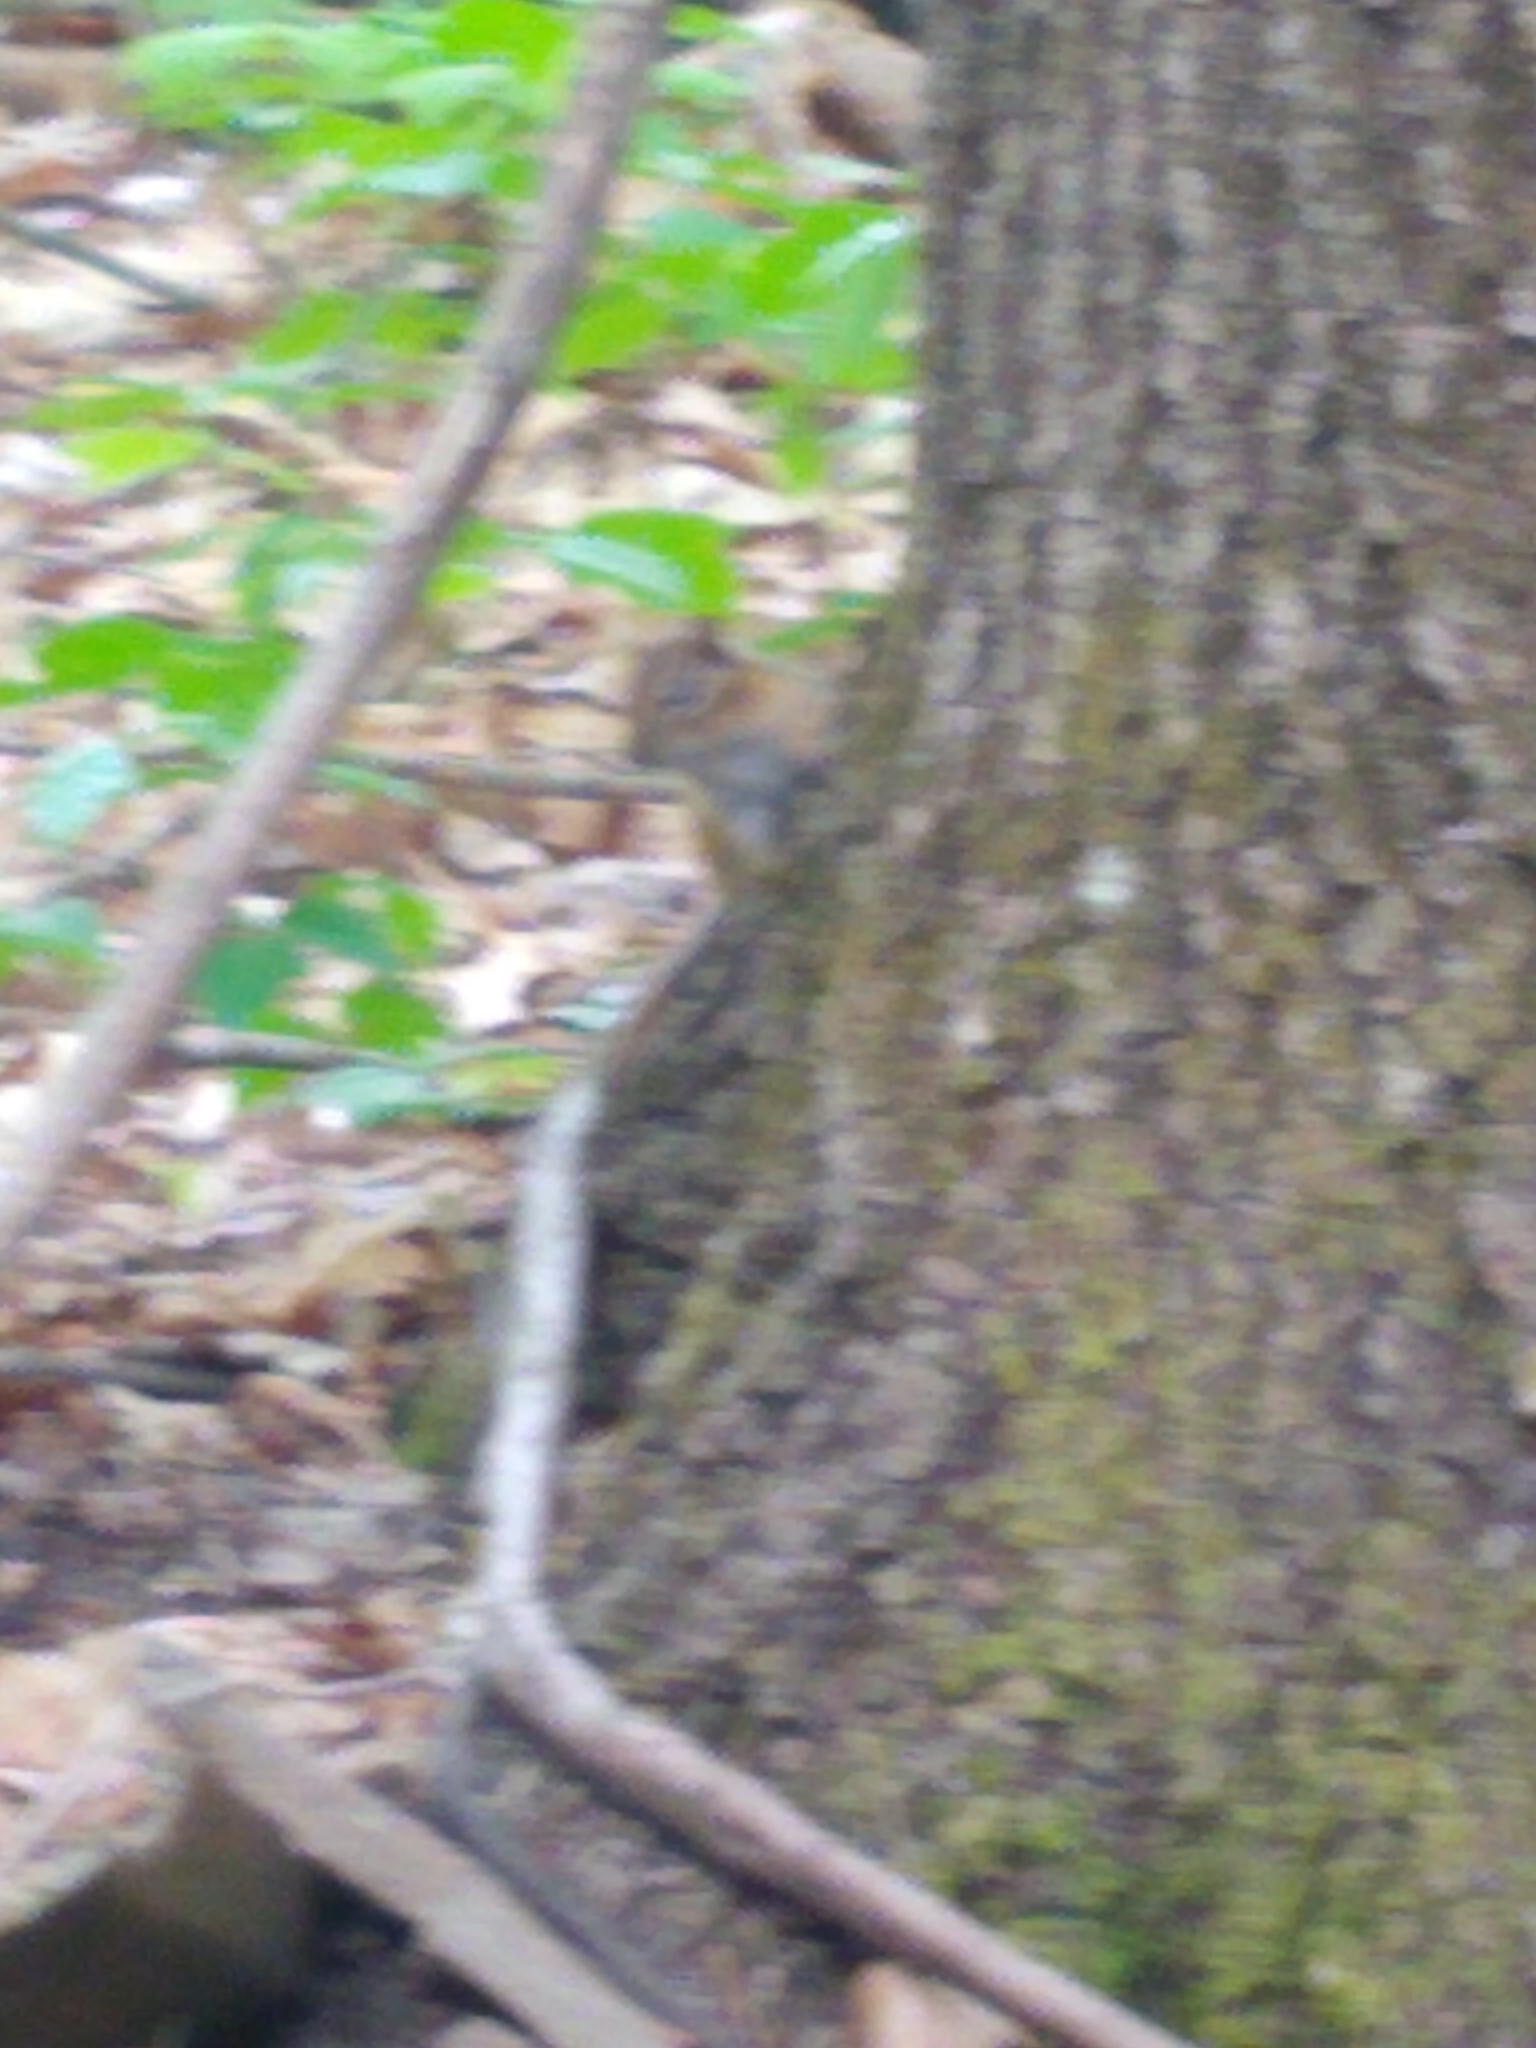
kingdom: Animalia
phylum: Chordata
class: Mammalia
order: Rodentia
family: Sciuridae
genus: Tamias
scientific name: Tamias striatus
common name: Eastern chipmunk
